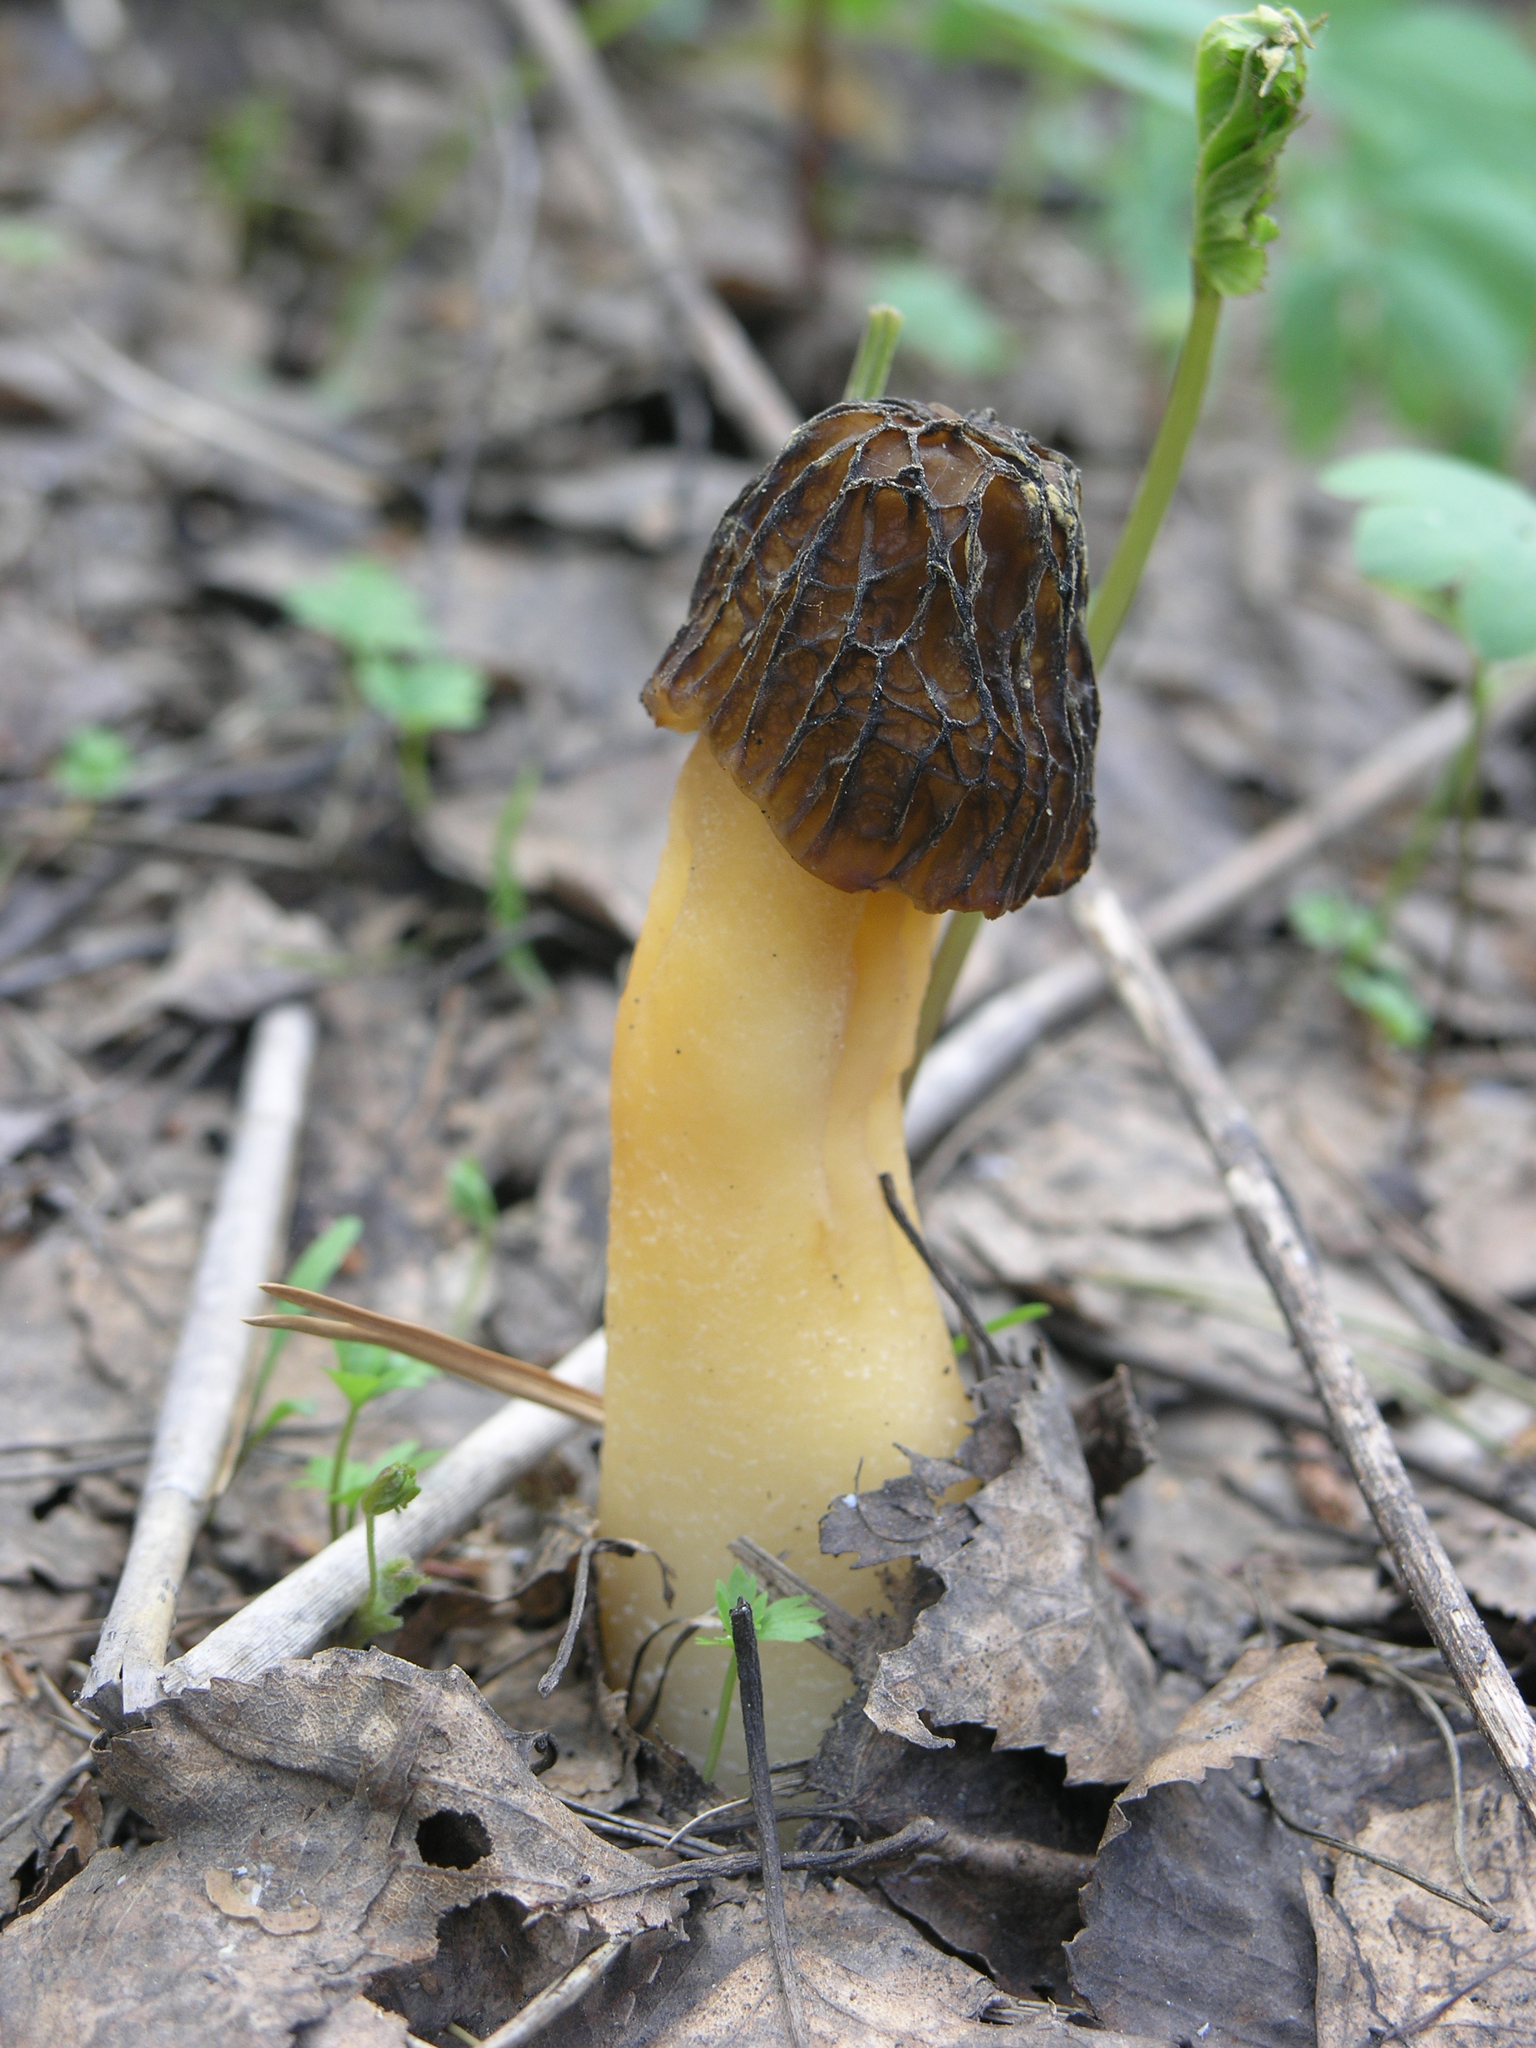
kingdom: Fungi
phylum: Ascomycota
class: Pezizomycetes
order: Pezizales
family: Morchellaceae
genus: Verpa
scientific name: Verpa bohemica
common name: Wrinkled thimble morel
